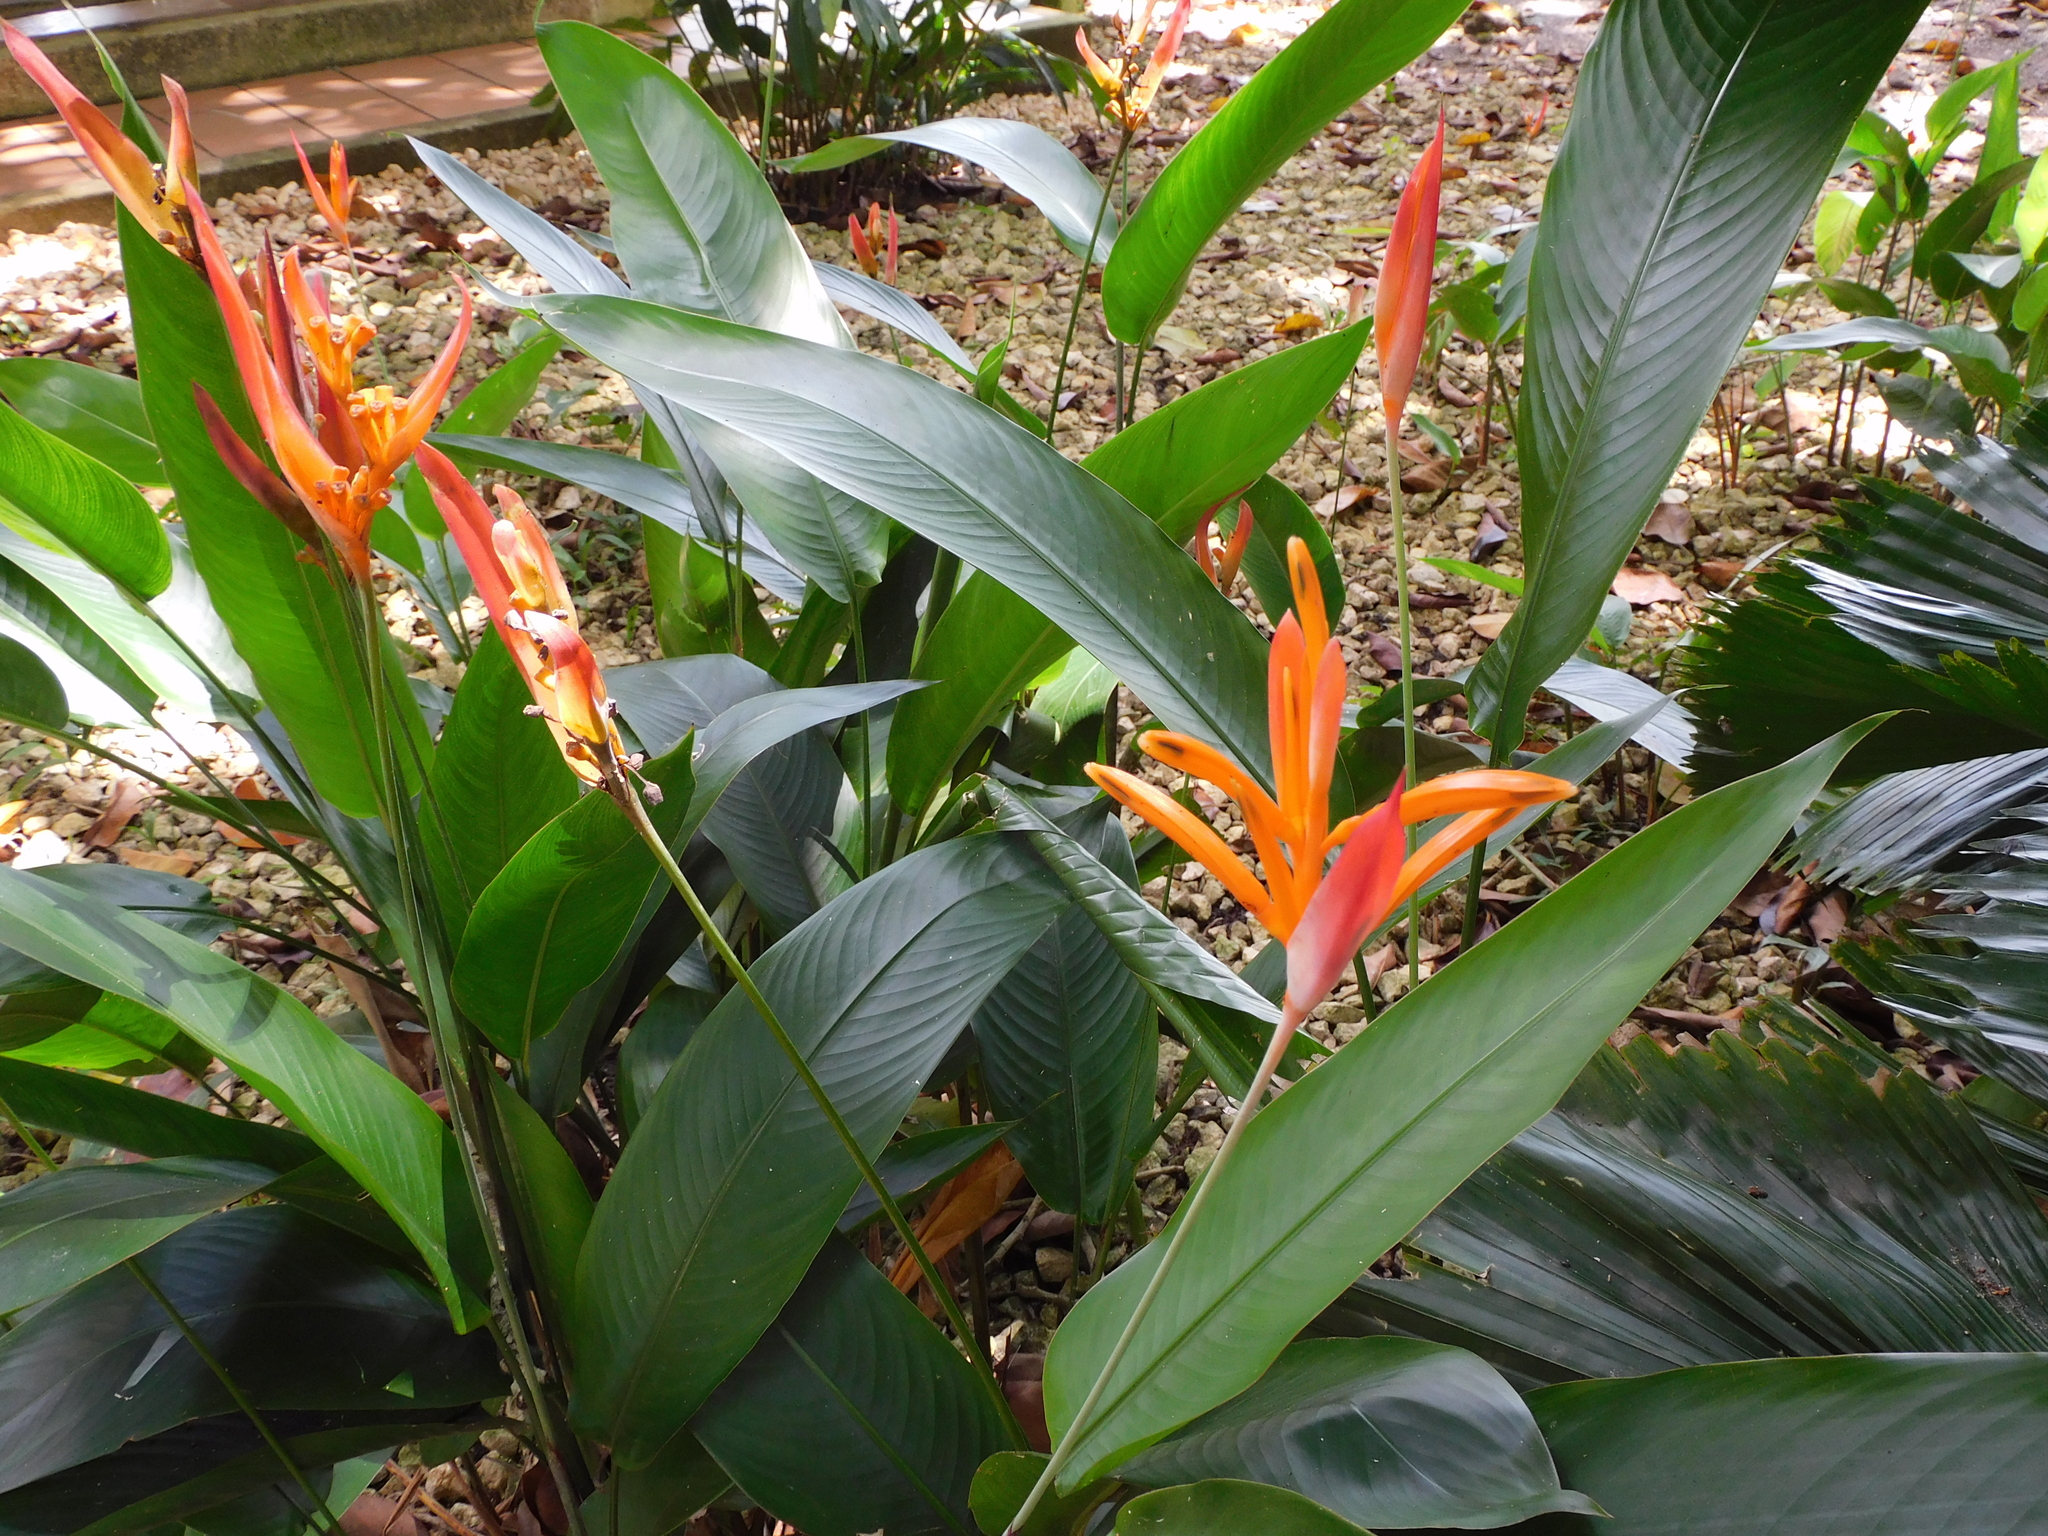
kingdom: Plantae
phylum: Tracheophyta
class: Liliopsida
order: Zingiberales
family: Heliconiaceae
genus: Heliconia
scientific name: Heliconia psittacorum
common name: Parrot's-flower
